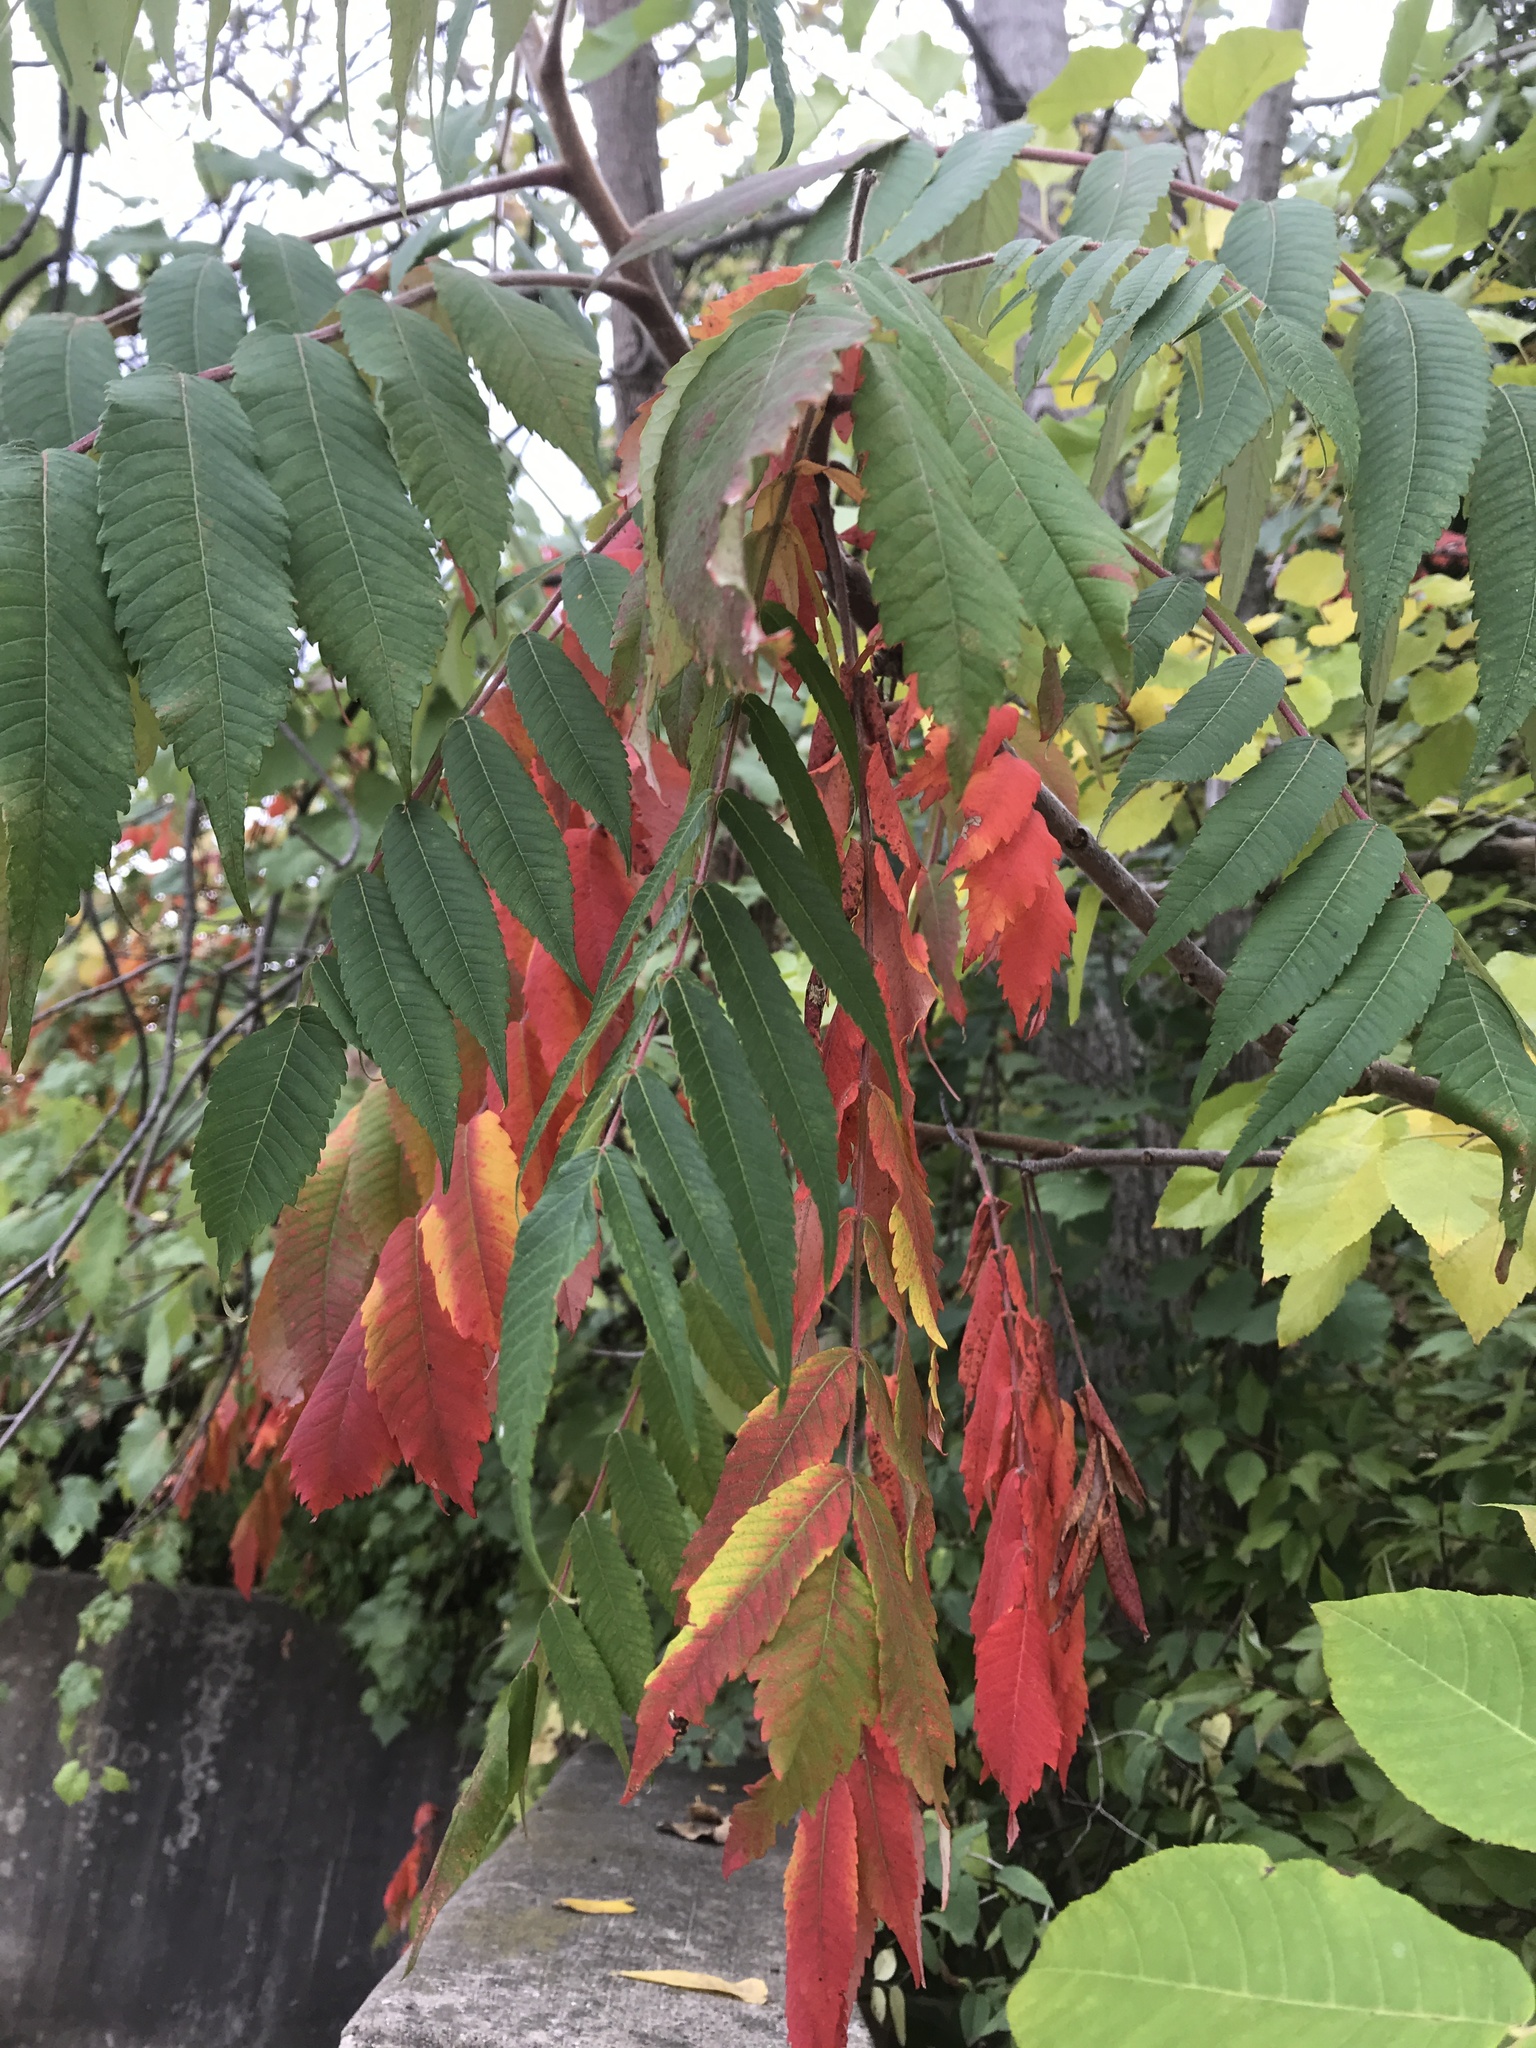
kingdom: Plantae
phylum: Tracheophyta
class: Magnoliopsida
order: Sapindales
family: Anacardiaceae
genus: Rhus
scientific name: Rhus typhina
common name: Staghorn sumac
